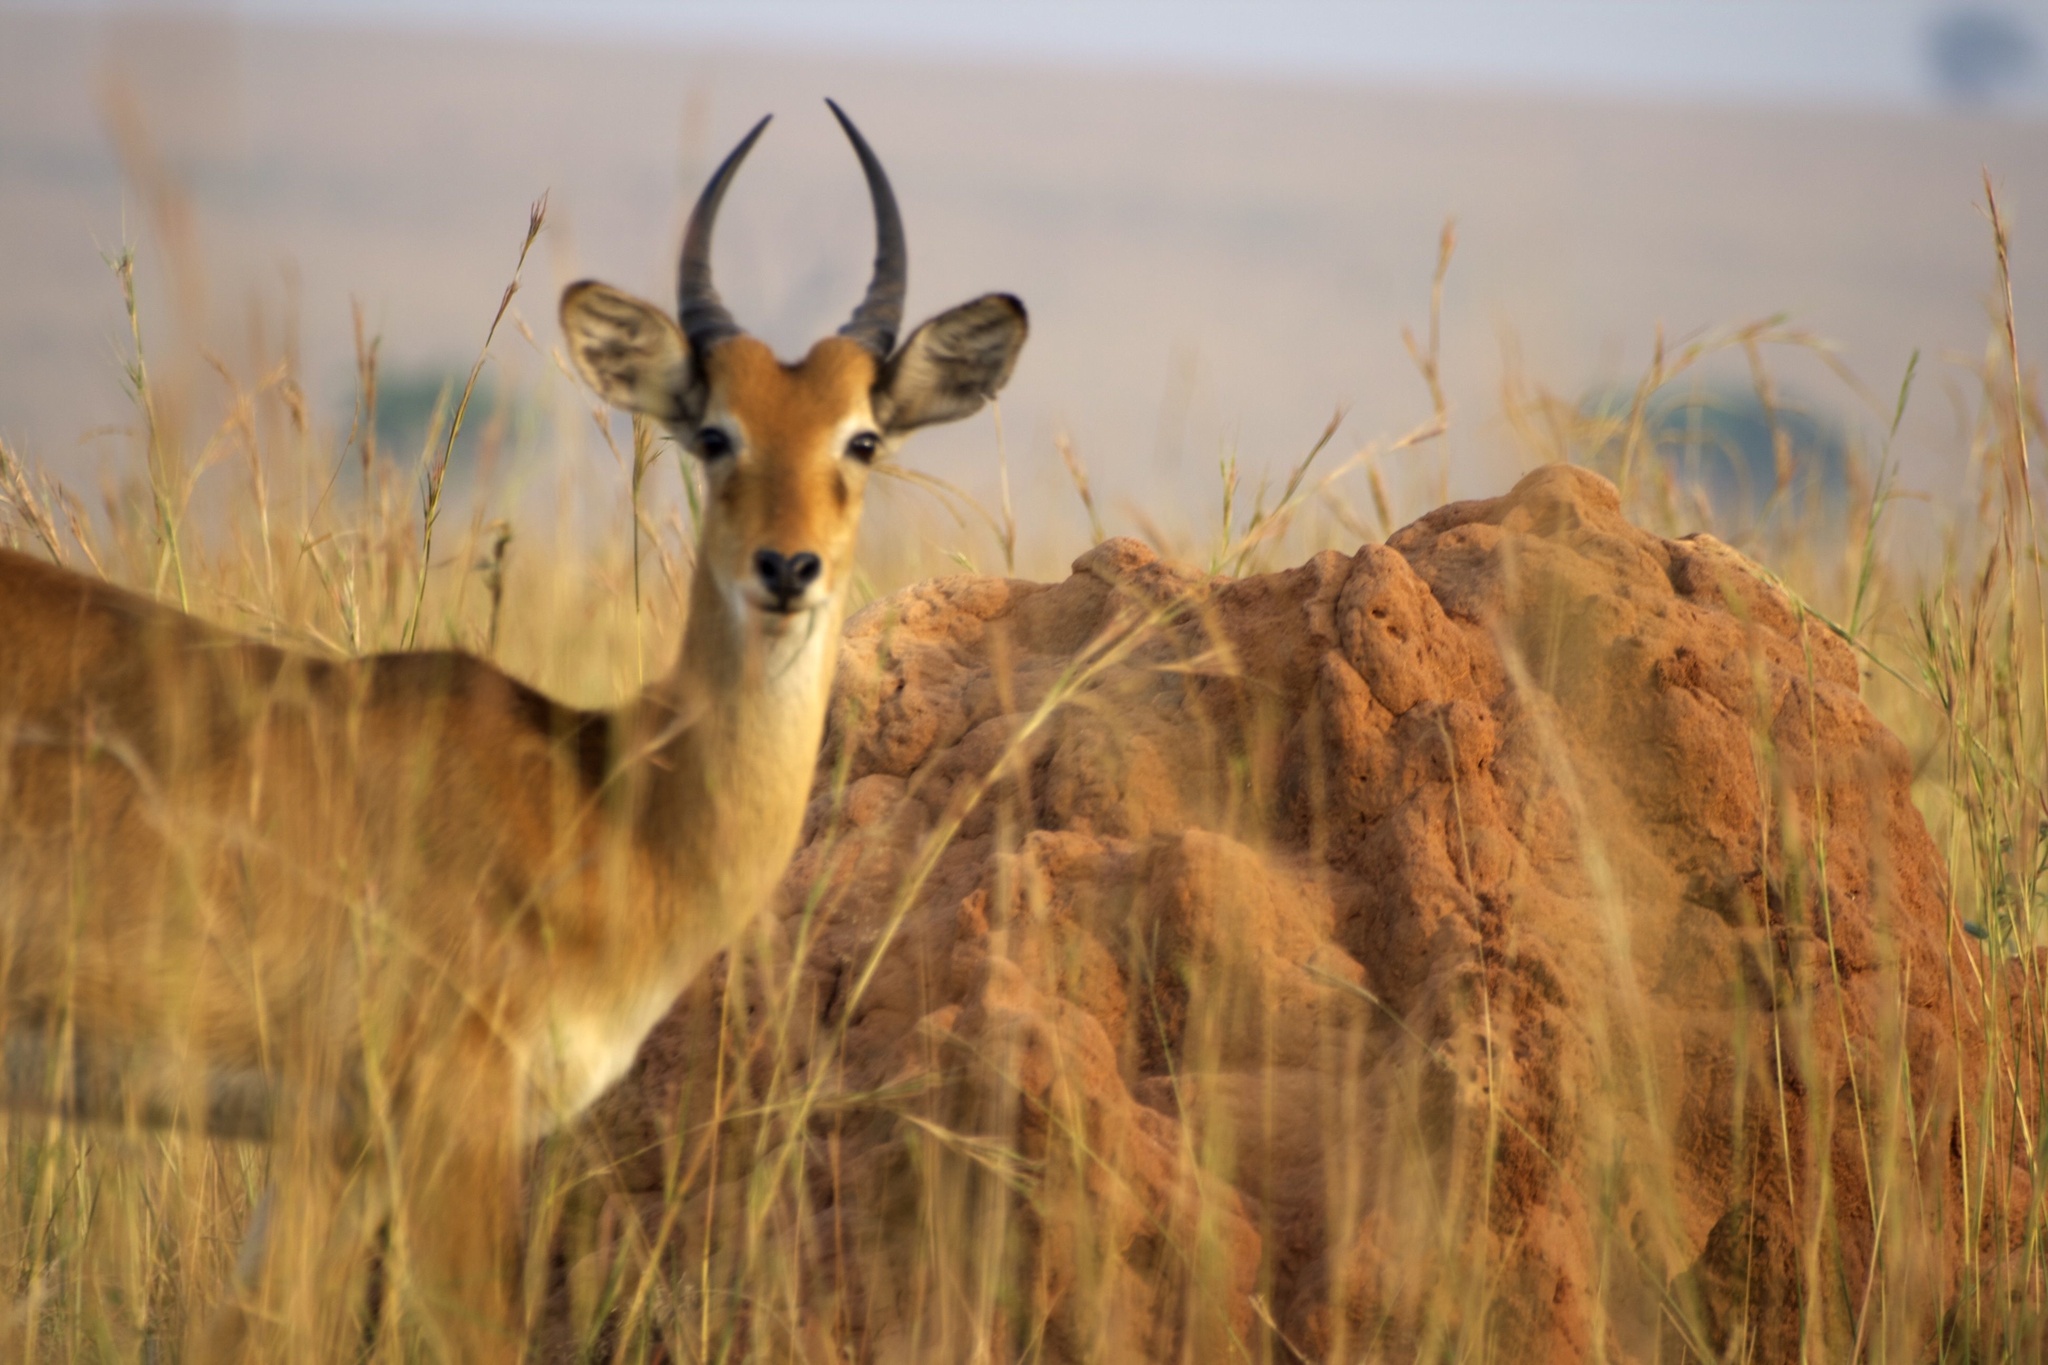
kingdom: Animalia
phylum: Chordata
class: Mammalia
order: Artiodactyla
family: Bovidae
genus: Kobus
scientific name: Kobus kob
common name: Kob
